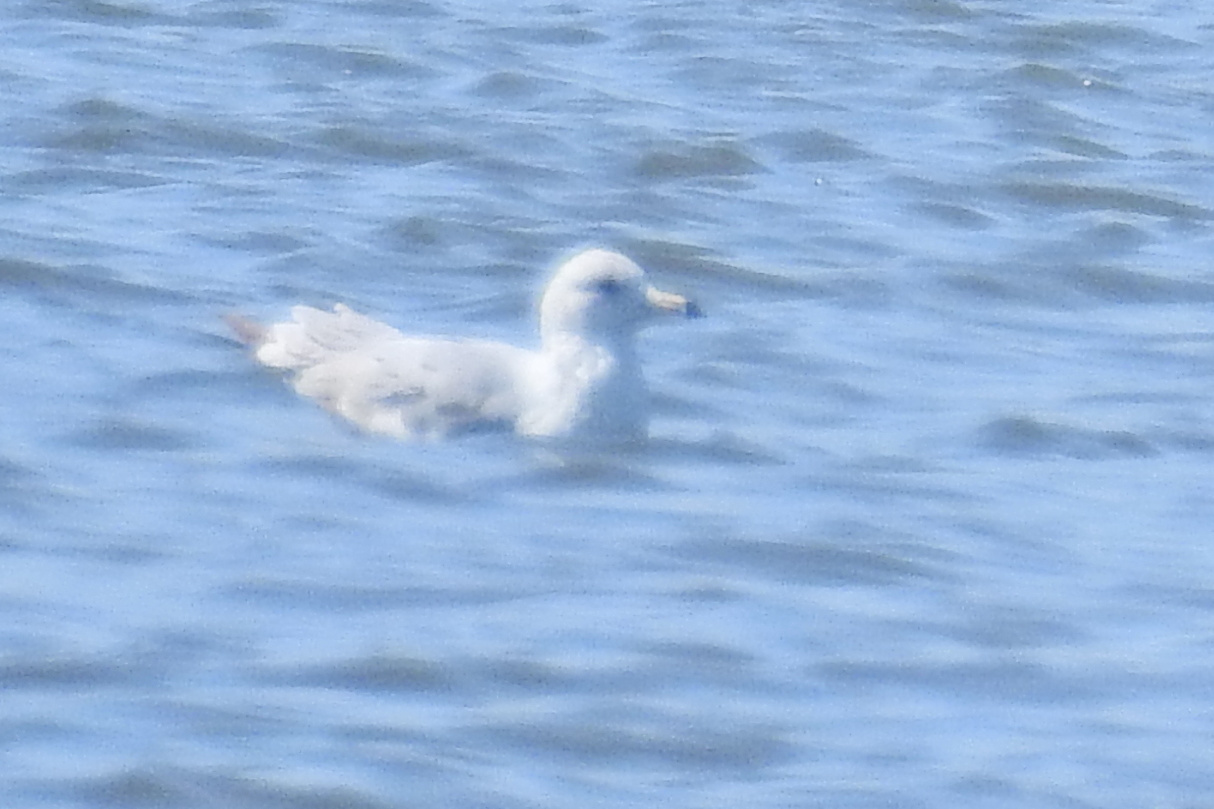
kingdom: Animalia
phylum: Chordata
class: Aves
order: Charadriiformes
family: Laridae
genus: Larus
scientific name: Larus delawarensis
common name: Ring-billed gull
